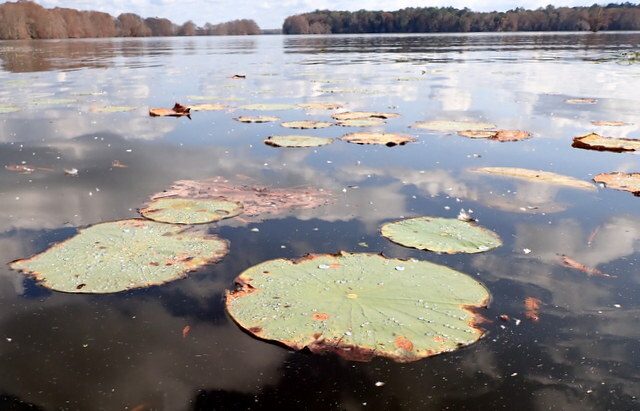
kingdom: Plantae
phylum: Tracheophyta
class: Magnoliopsida
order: Proteales
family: Nelumbonaceae
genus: Nelumbo
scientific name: Nelumbo lutea
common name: American lotus
